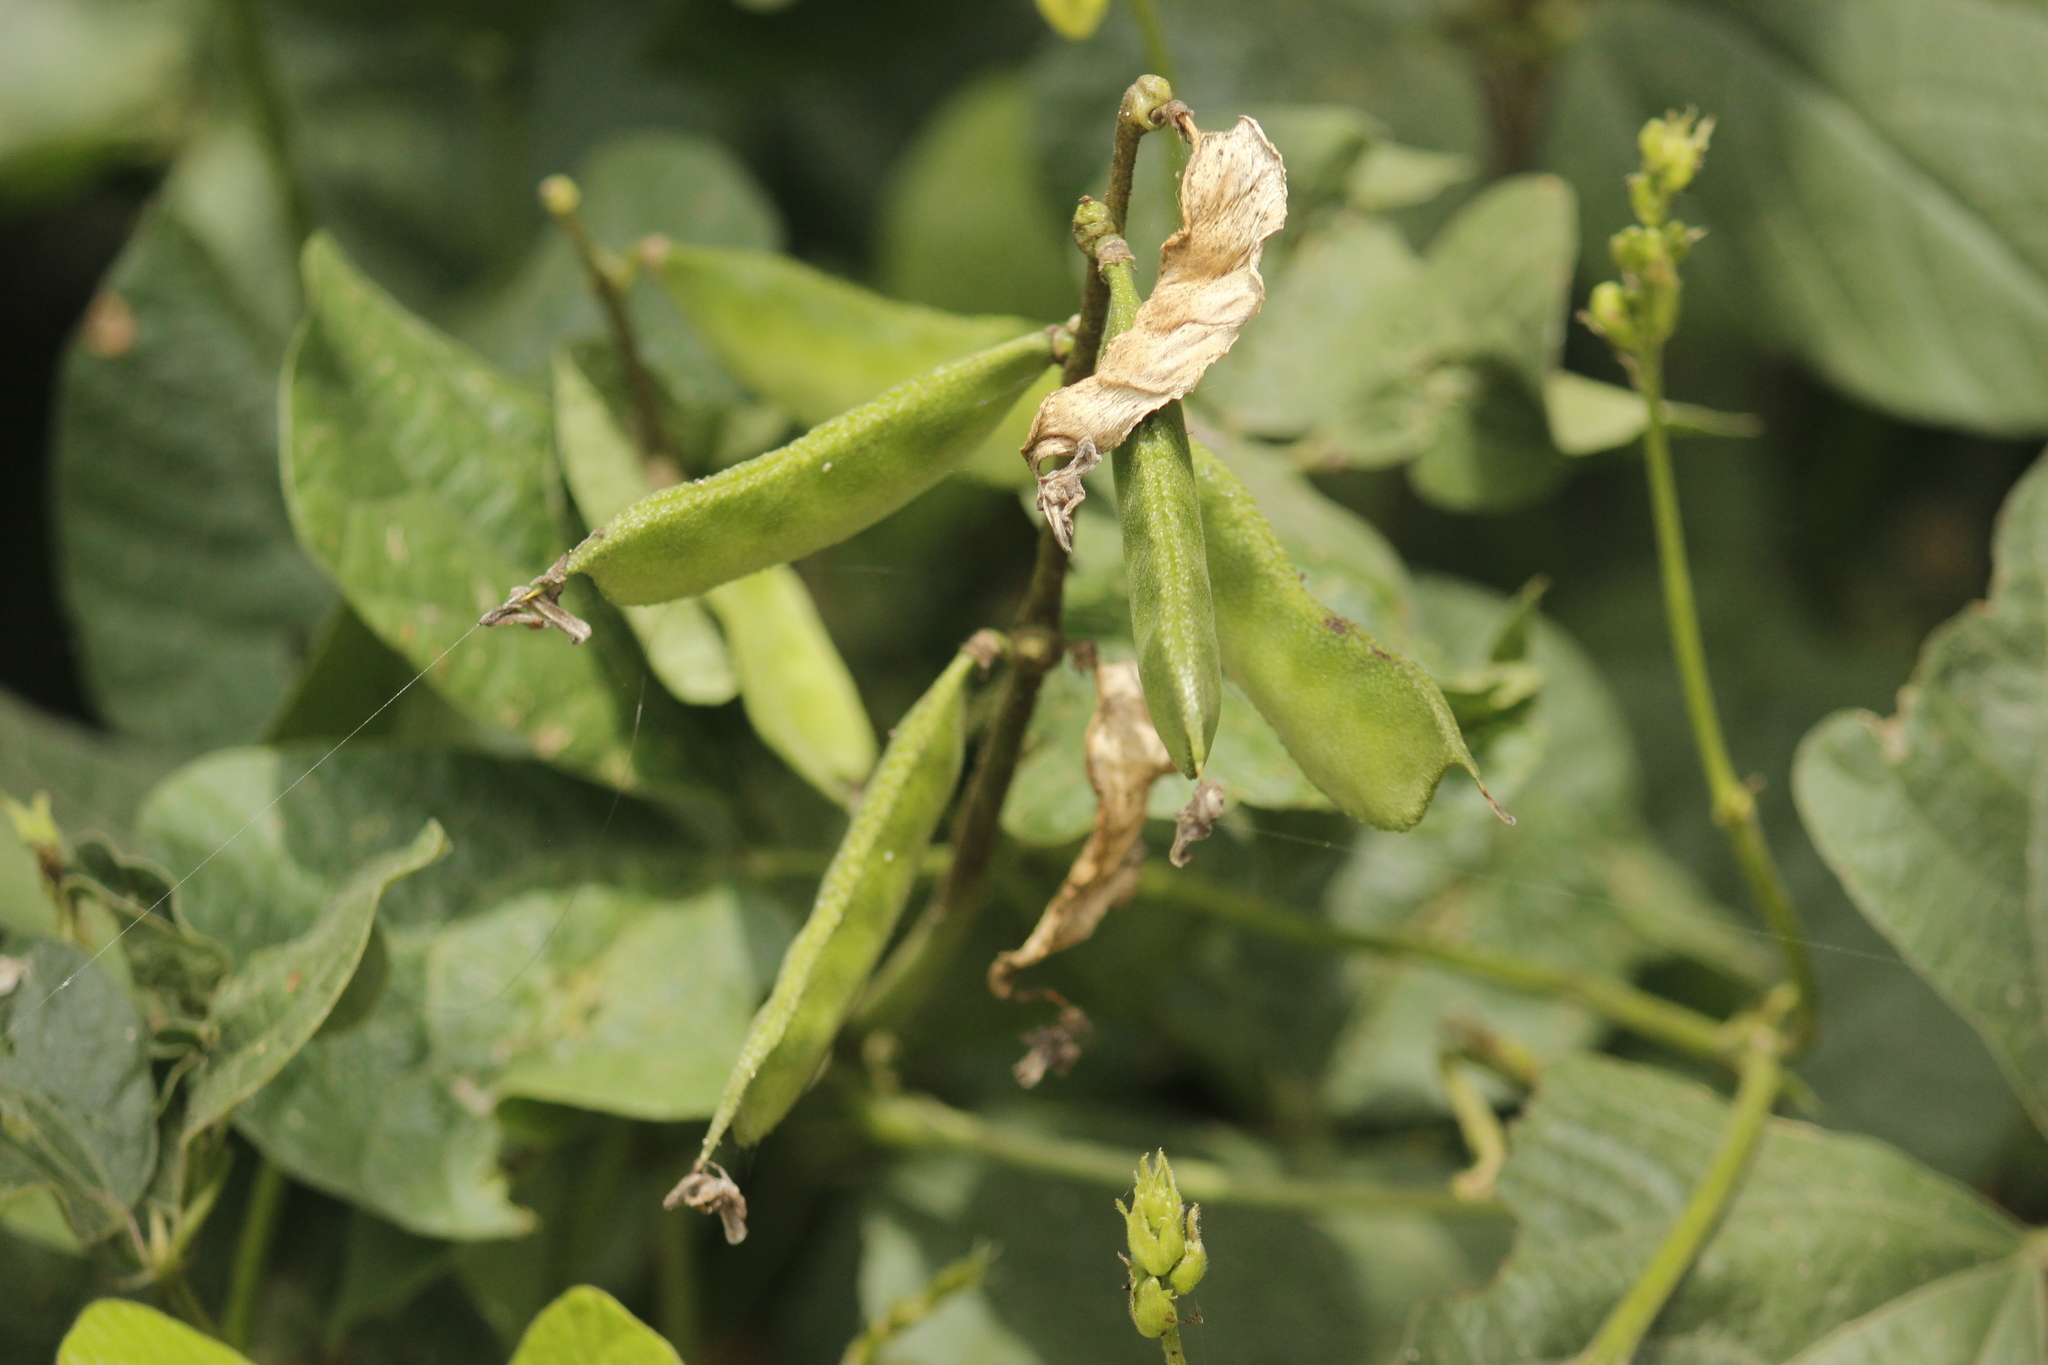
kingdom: Plantae
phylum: Tracheophyta
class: Magnoliopsida
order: Fabales
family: Fabaceae
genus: Lablab
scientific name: Lablab purpureus
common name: Lablab-bean
